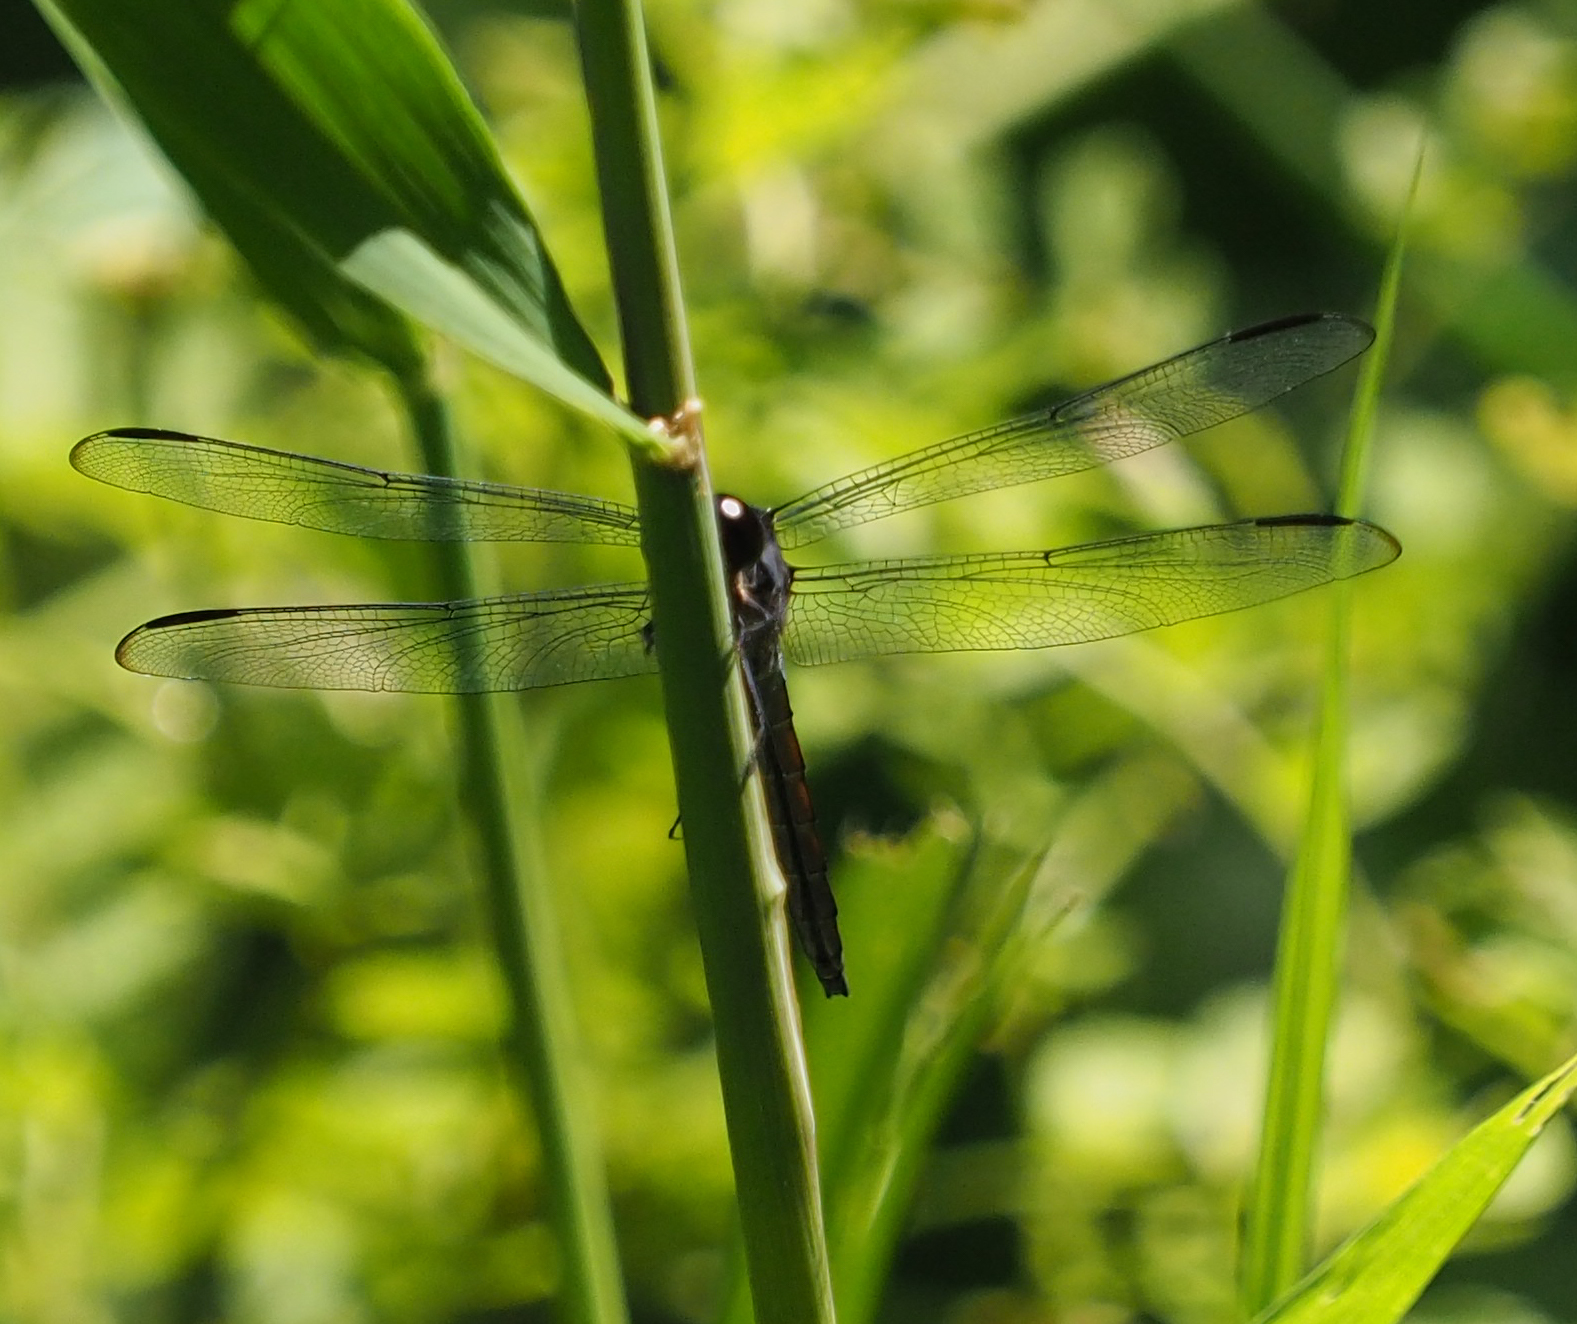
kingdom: Animalia
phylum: Arthropoda
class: Insecta
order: Odonata
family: Libellulidae
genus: Libellula
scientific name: Libellula incesta
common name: Slaty skimmer
